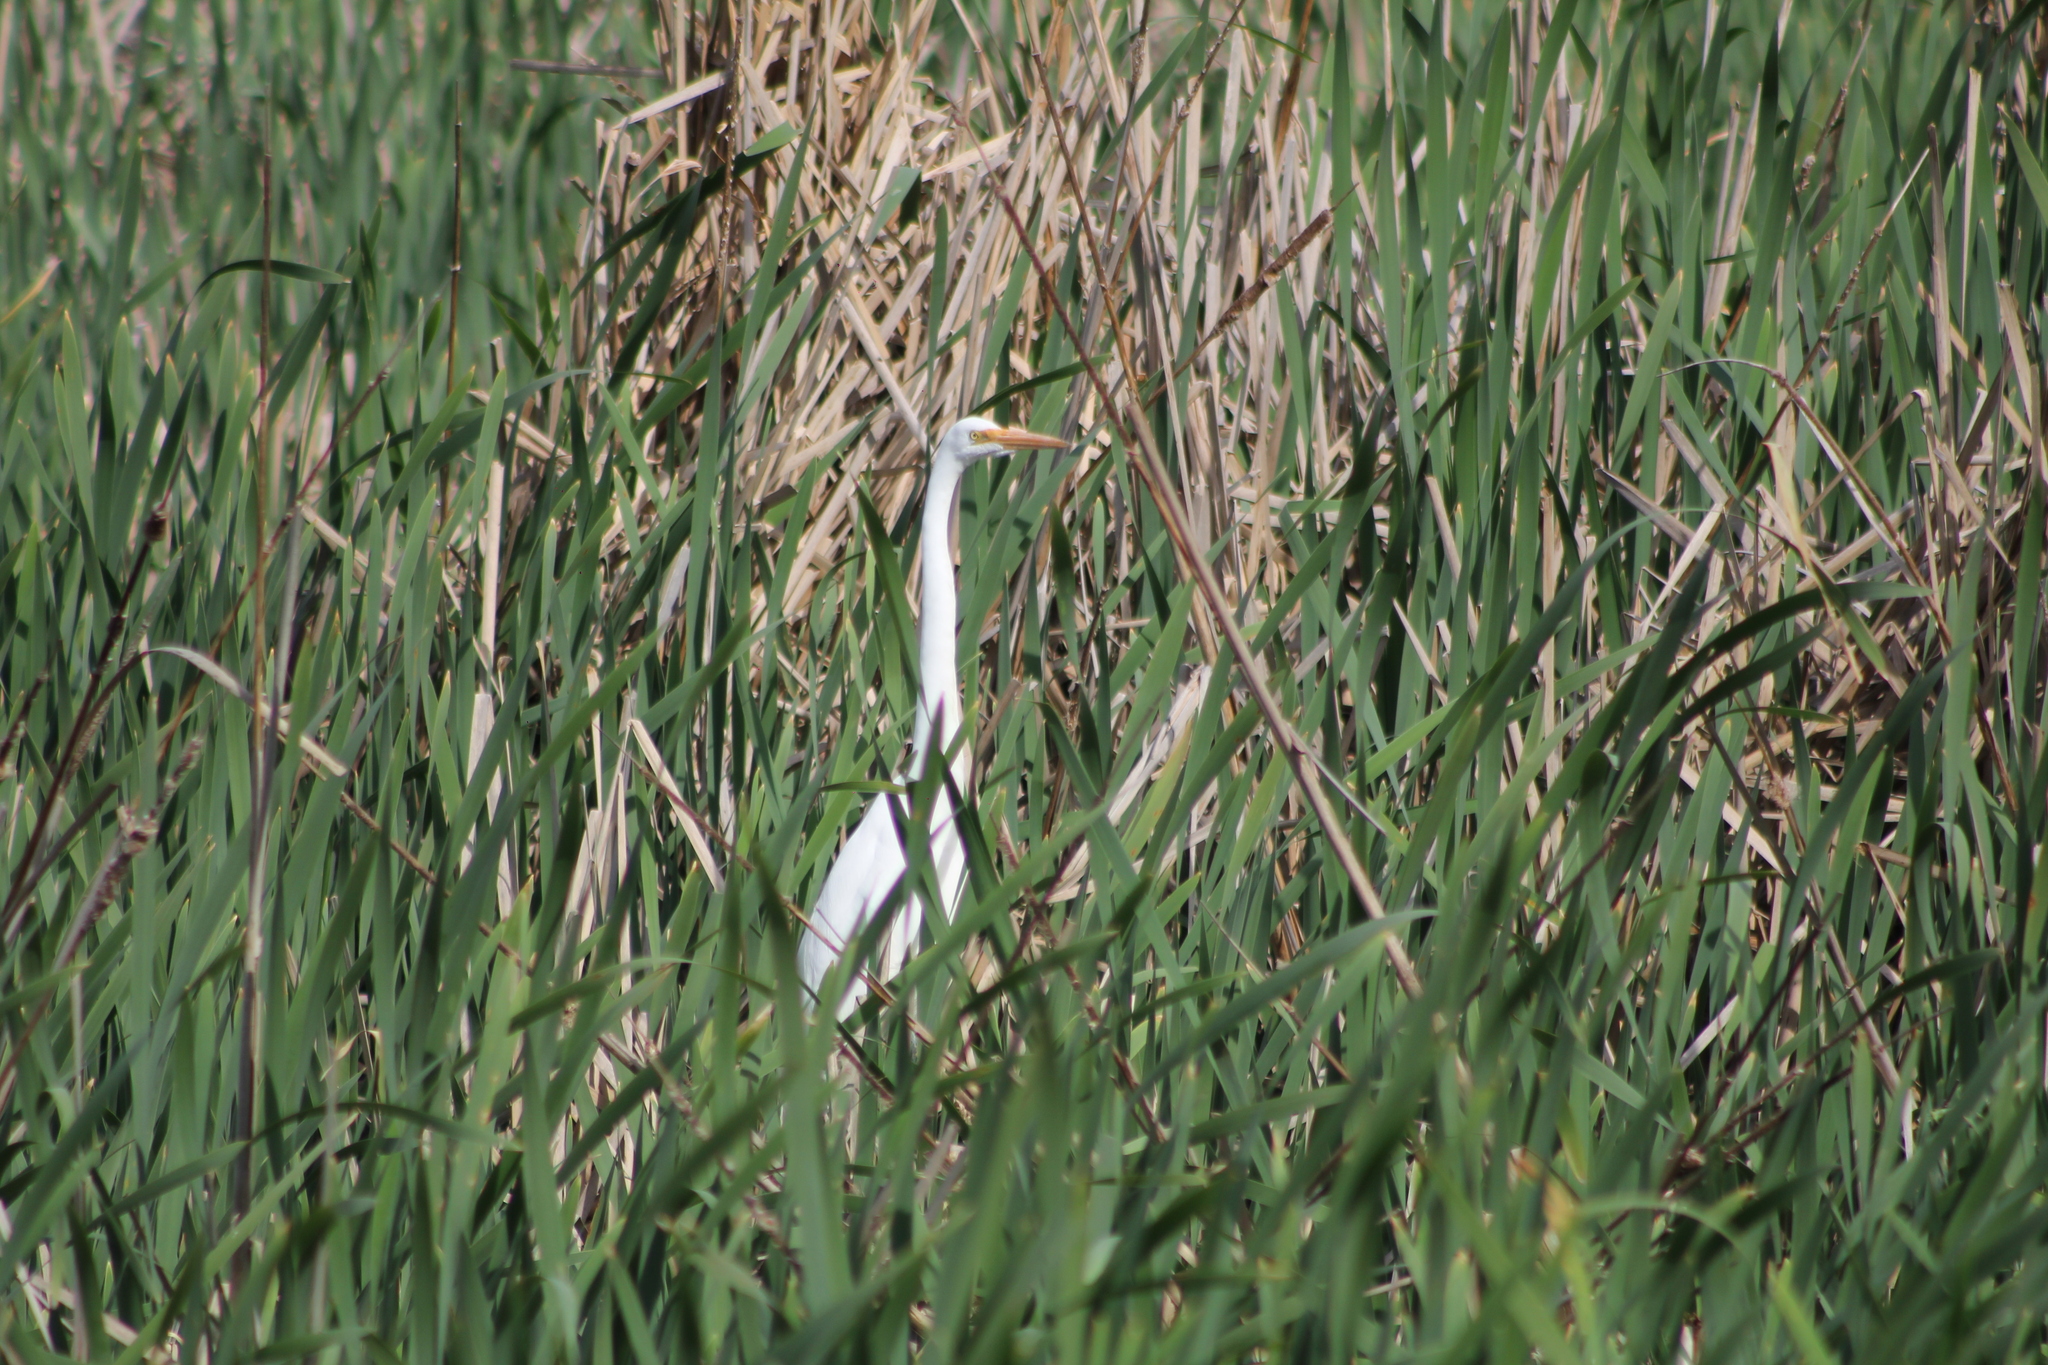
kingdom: Animalia
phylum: Chordata
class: Aves
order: Pelecaniformes
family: Ardeidae
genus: Ardea
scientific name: Ardea alba
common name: Great egret
